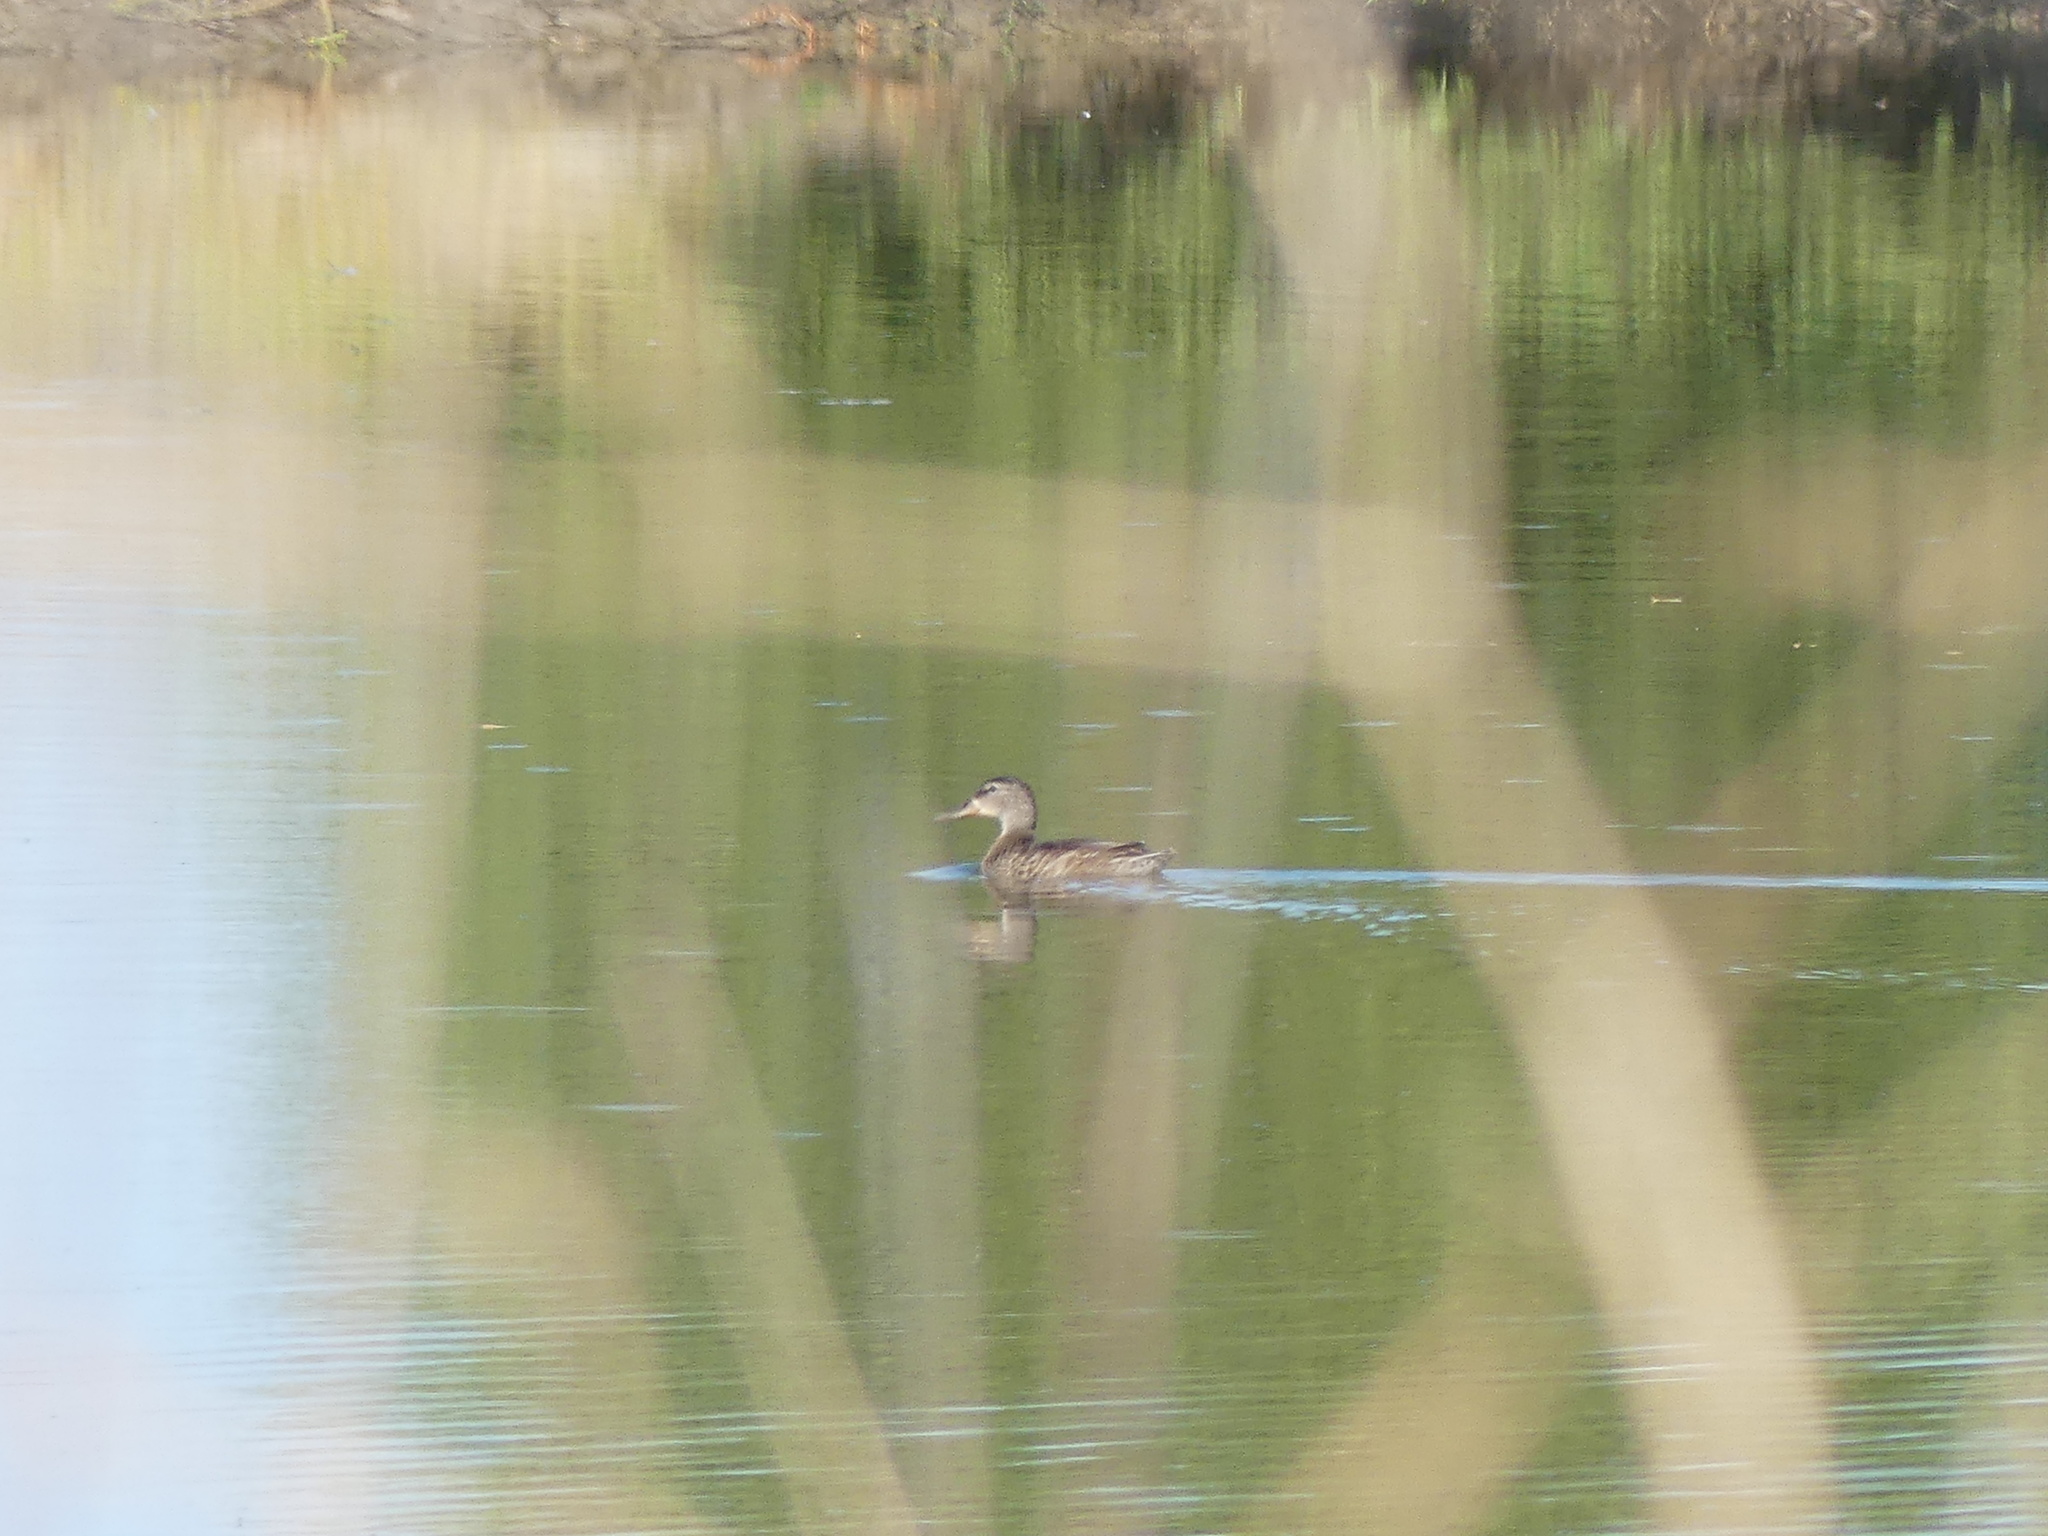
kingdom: Animalia
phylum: Chordata
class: Aves
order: Anseriformes
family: Anatidae
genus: Anas
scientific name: Anas platyrhynchos
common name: Mallard
